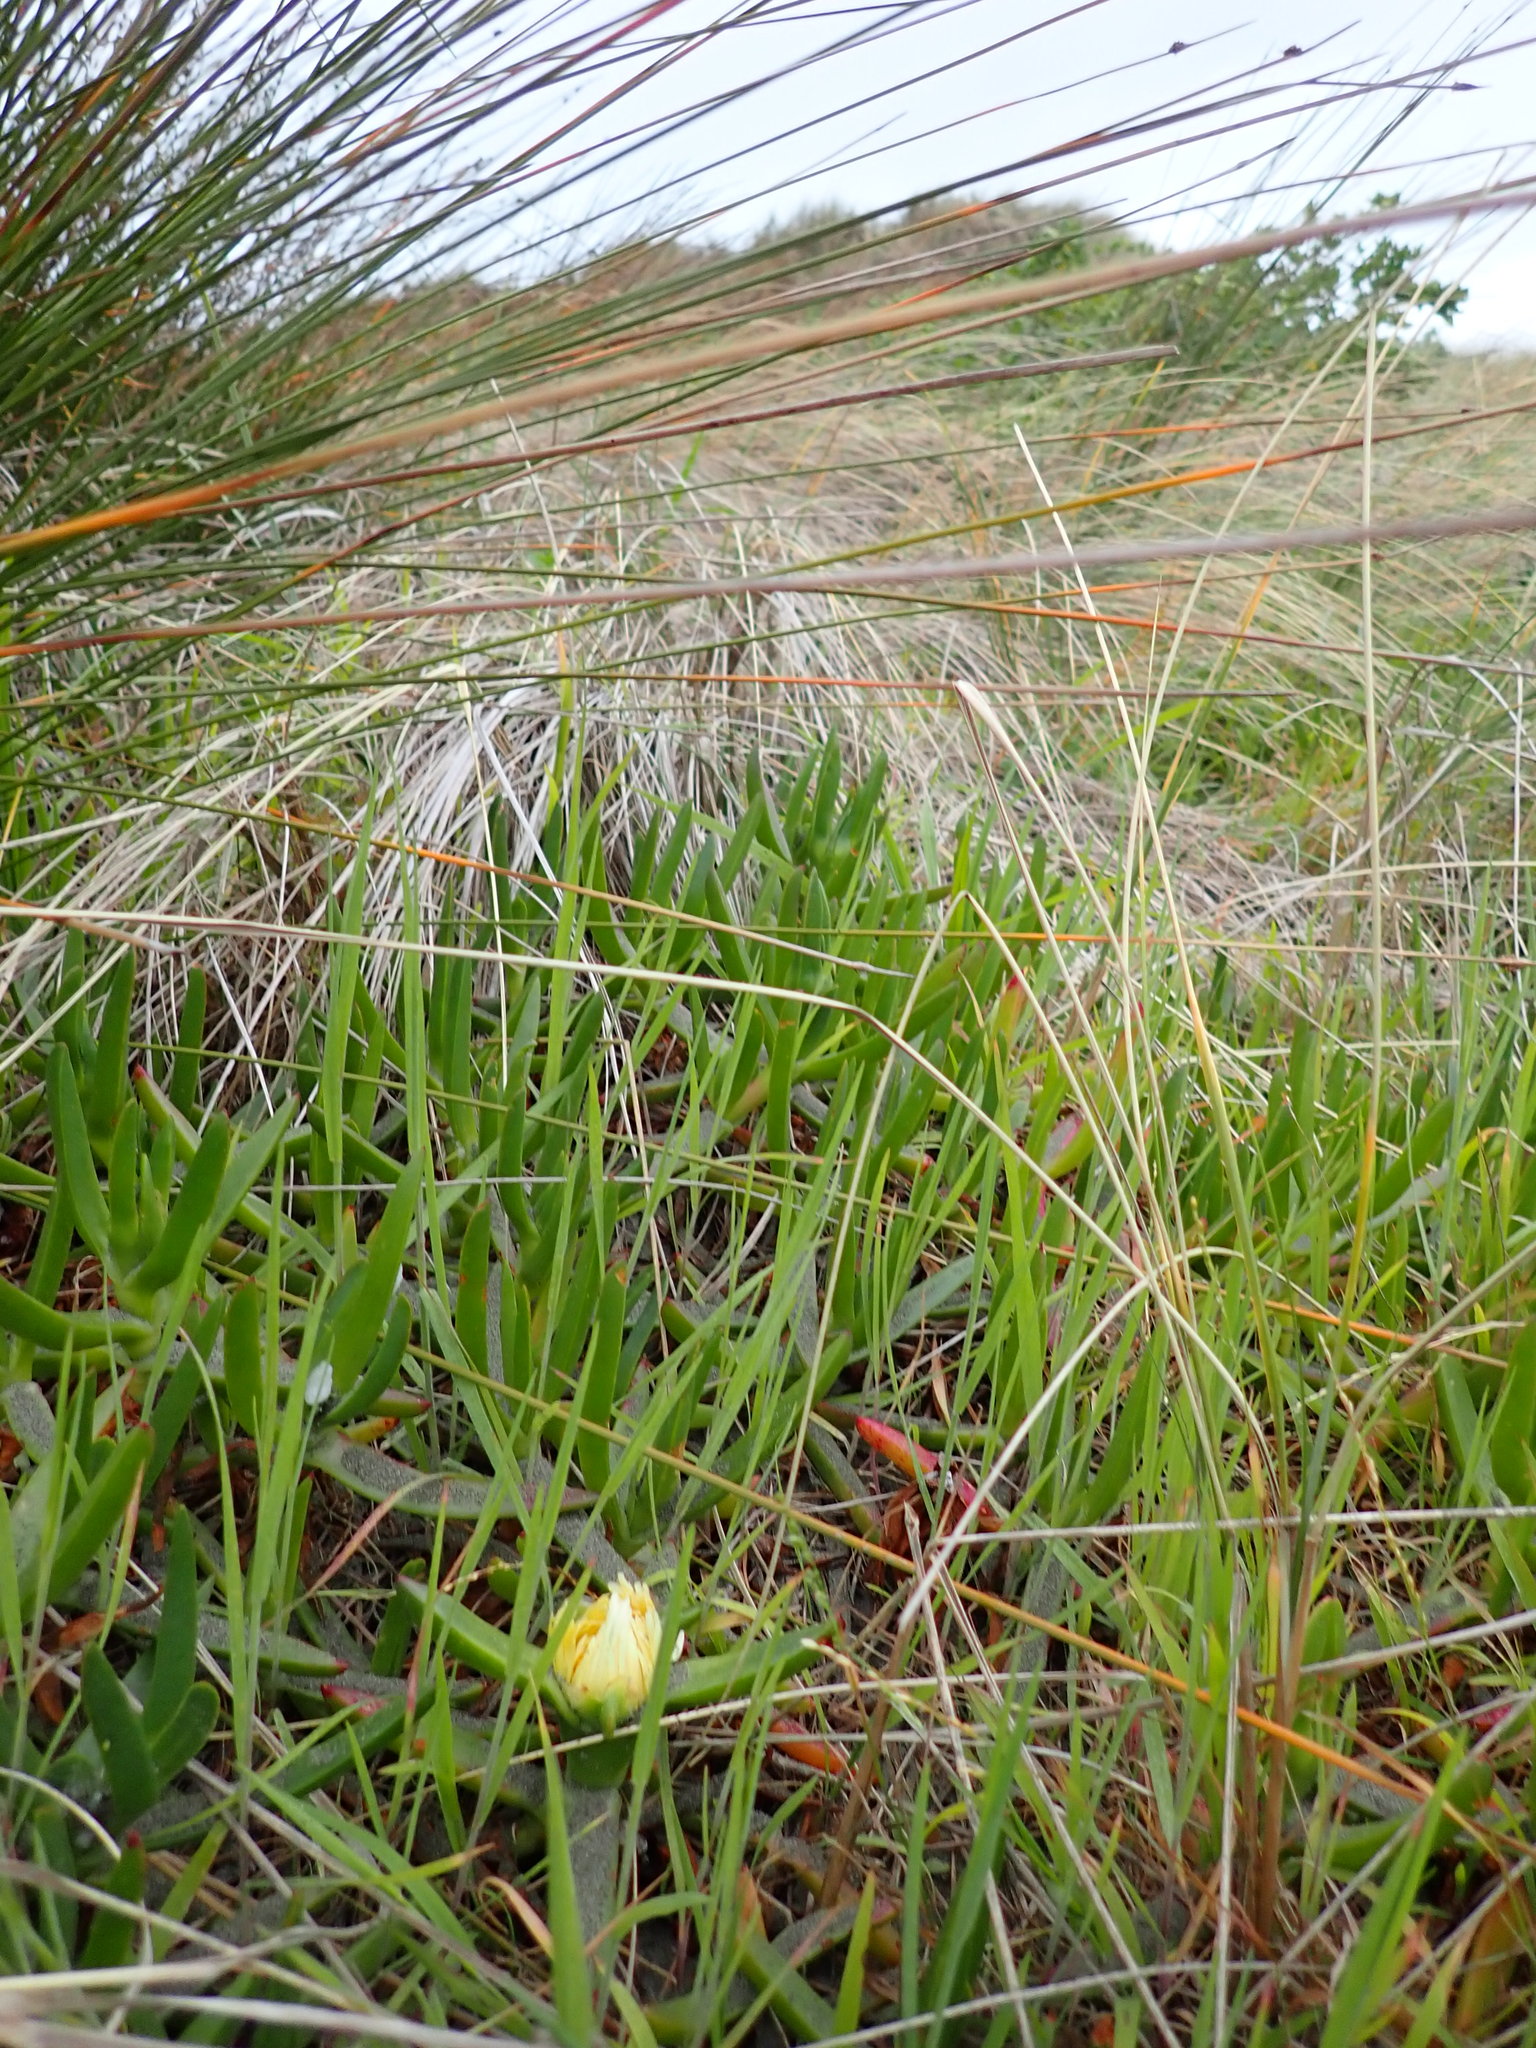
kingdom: Plantae
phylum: Tracheophyta
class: Magnoliopsida
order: Caryophyllales
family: Aizoaceae
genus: Carpobrotus
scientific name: Carpobrotus edulis
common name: Hottentot-fig
